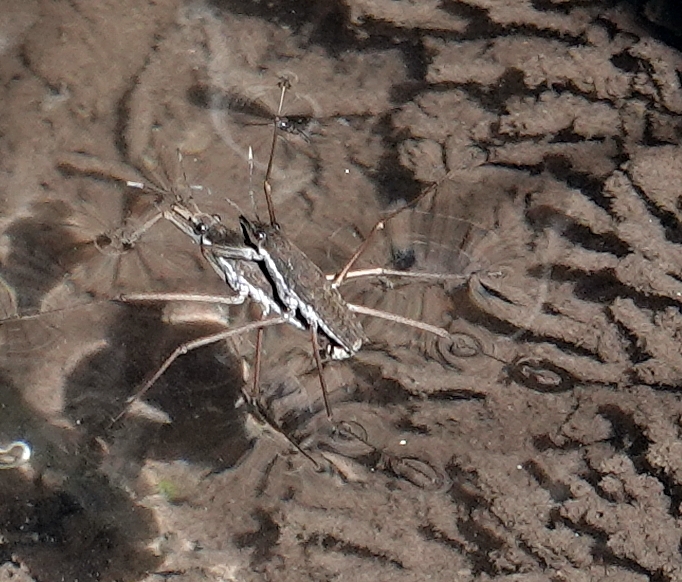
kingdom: Animalia
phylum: Arthropoda
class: Insecta
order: Hemiptera
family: Gerridae
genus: Aquarius
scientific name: Aquarius remigis
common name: Common water strider
